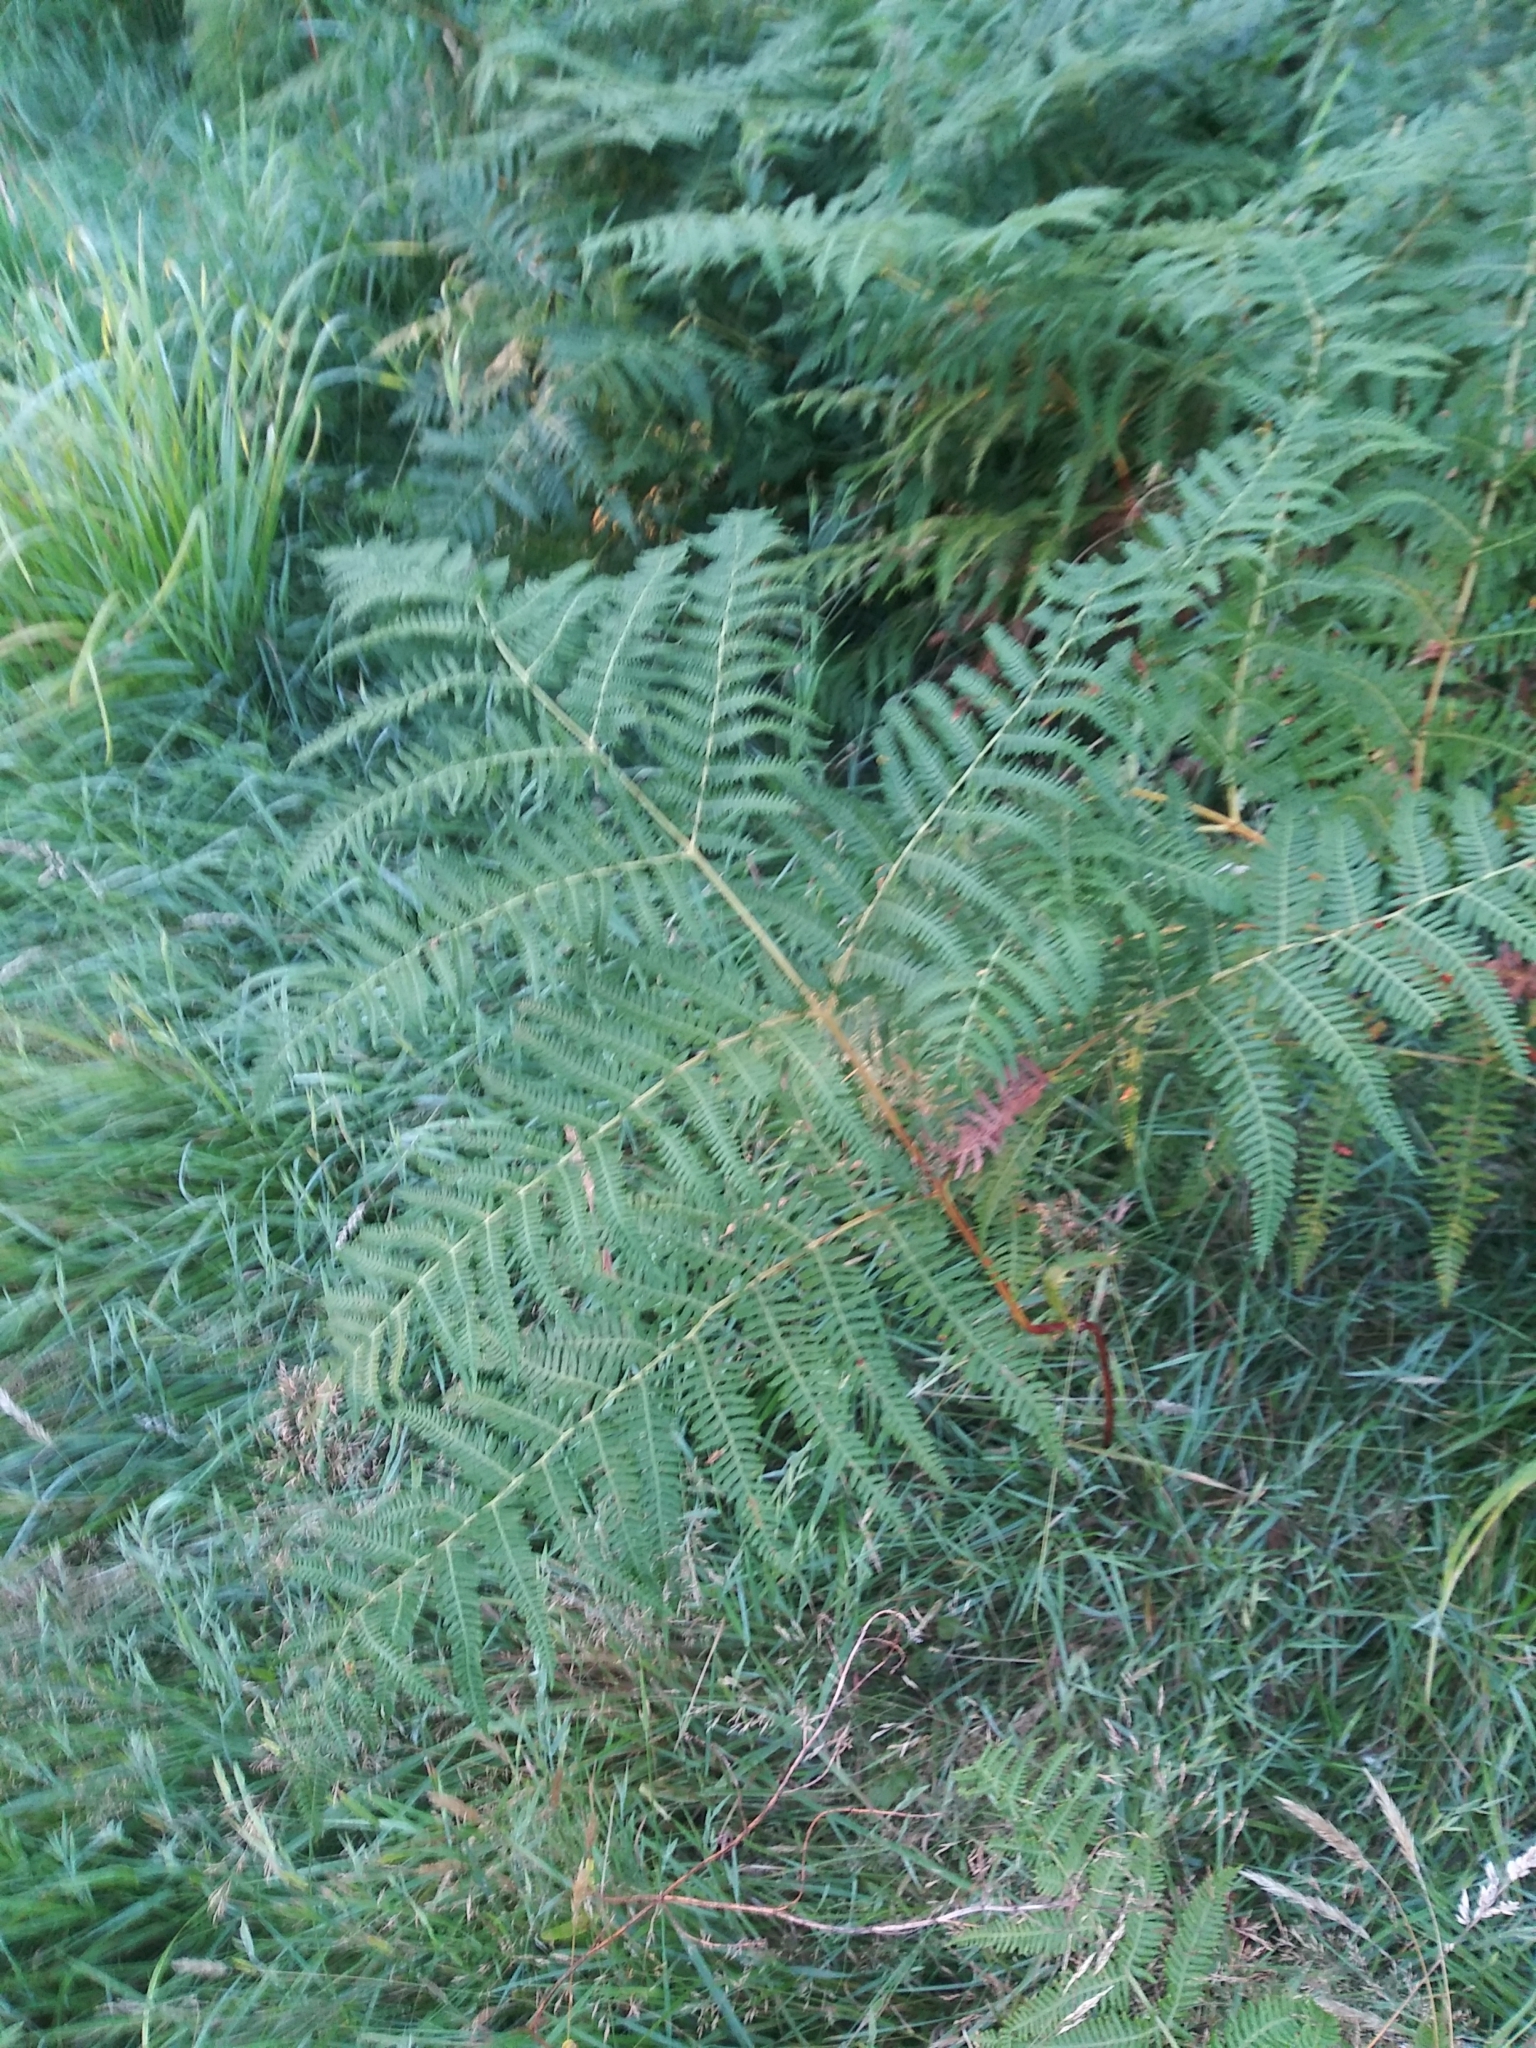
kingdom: Plantae
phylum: Tracheophyta
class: Polypodiopsida
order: Polypodiales
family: Dennstaedtiaceae
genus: Pteridium
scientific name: Pteridium aquilinum
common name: Bracken
